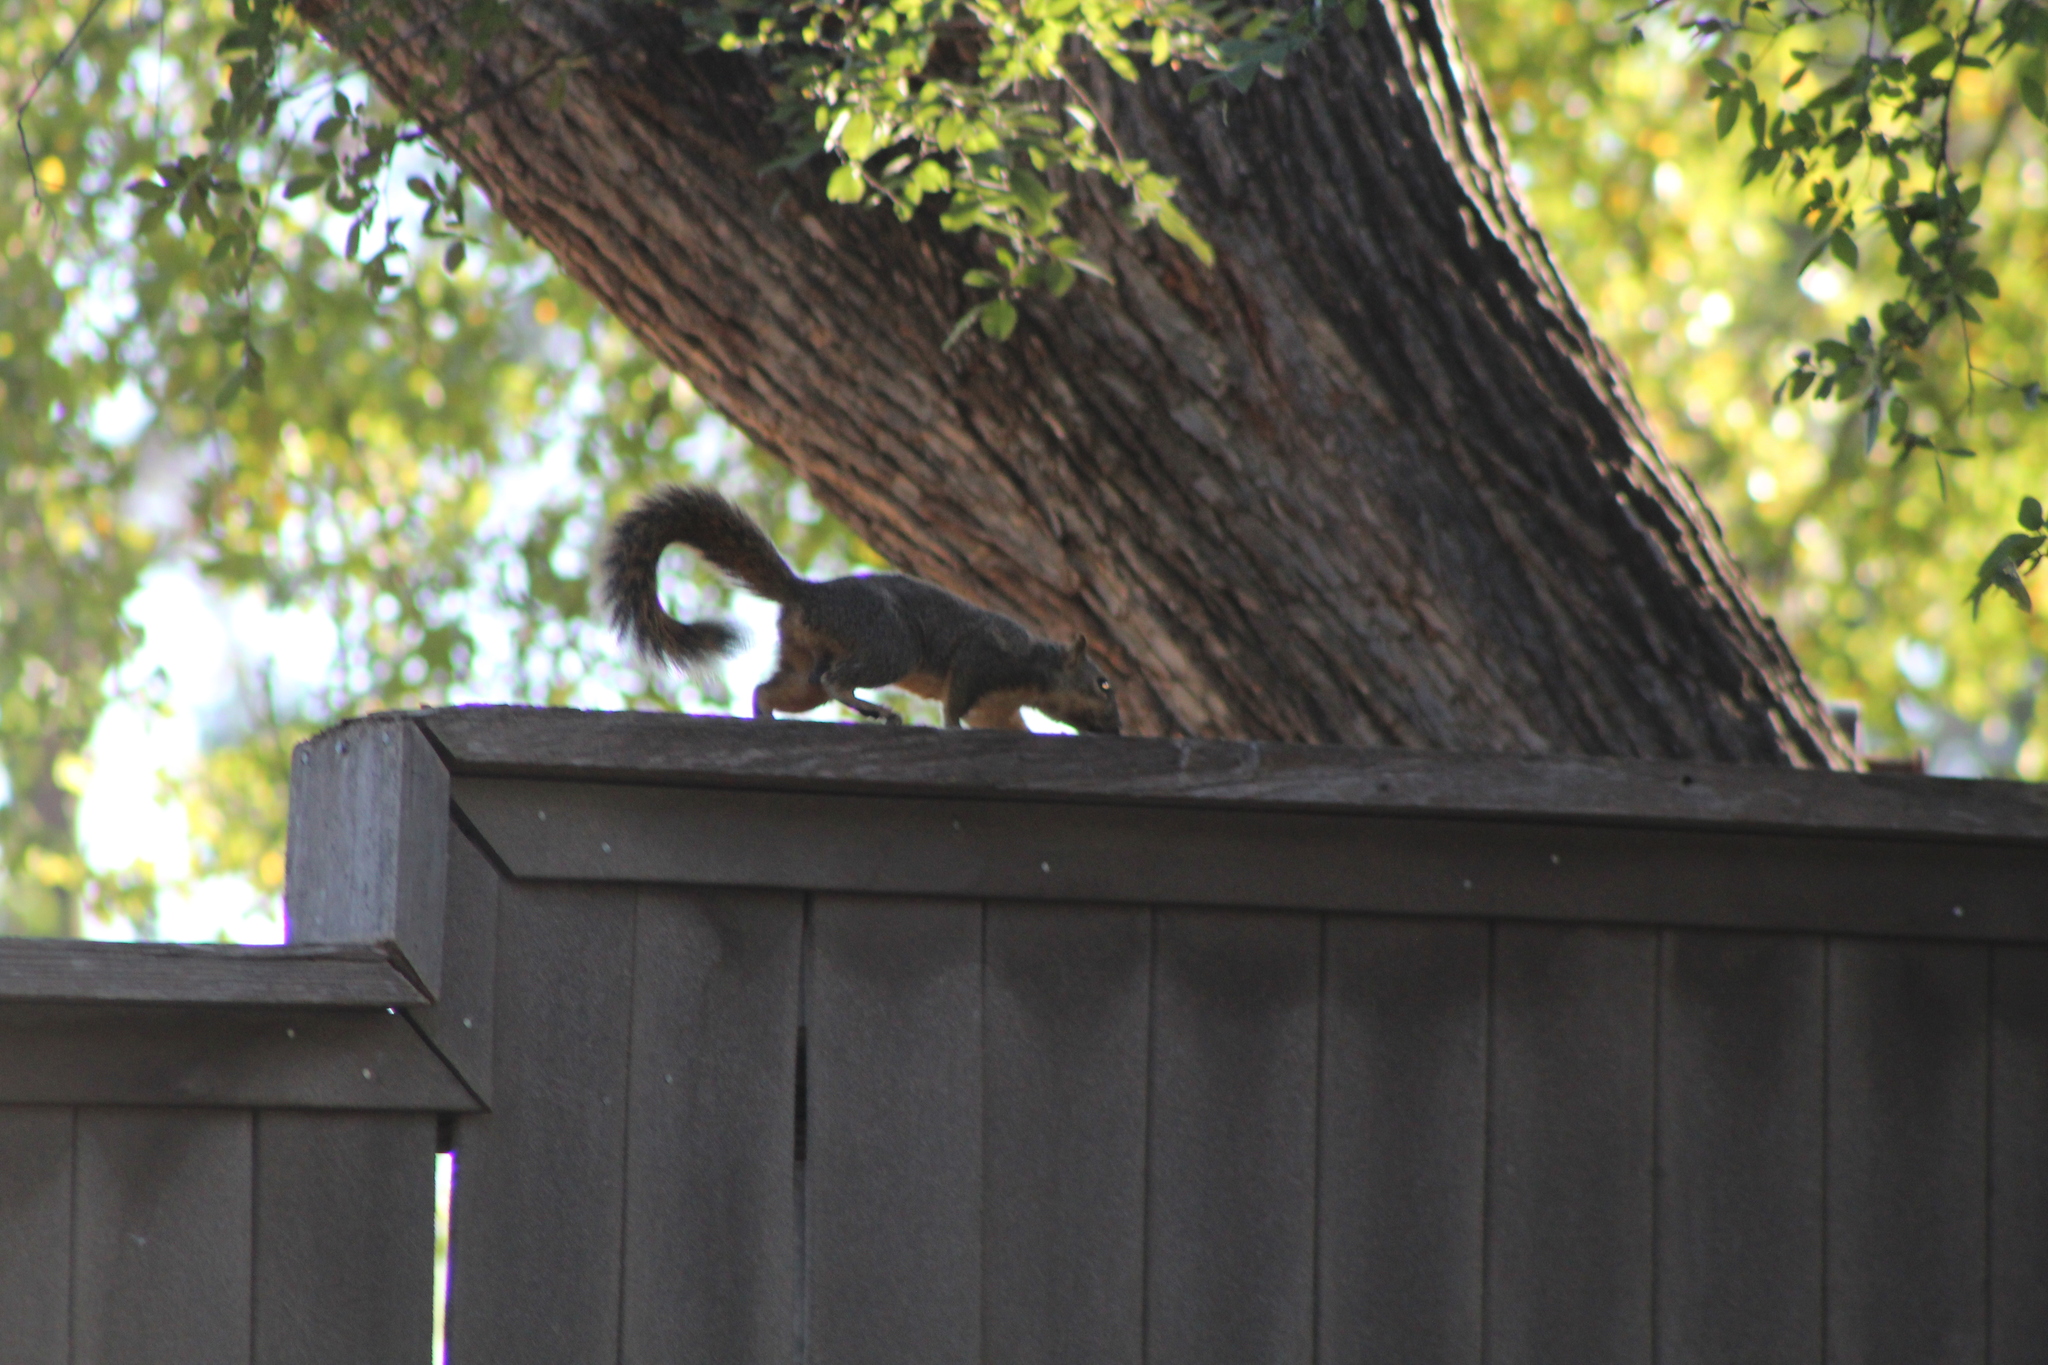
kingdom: Animalia
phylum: Chordata
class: Mammalia
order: Rodentia
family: Sciuridae
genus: Sciurus
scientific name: Sciurus niger
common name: Fox squirrel
